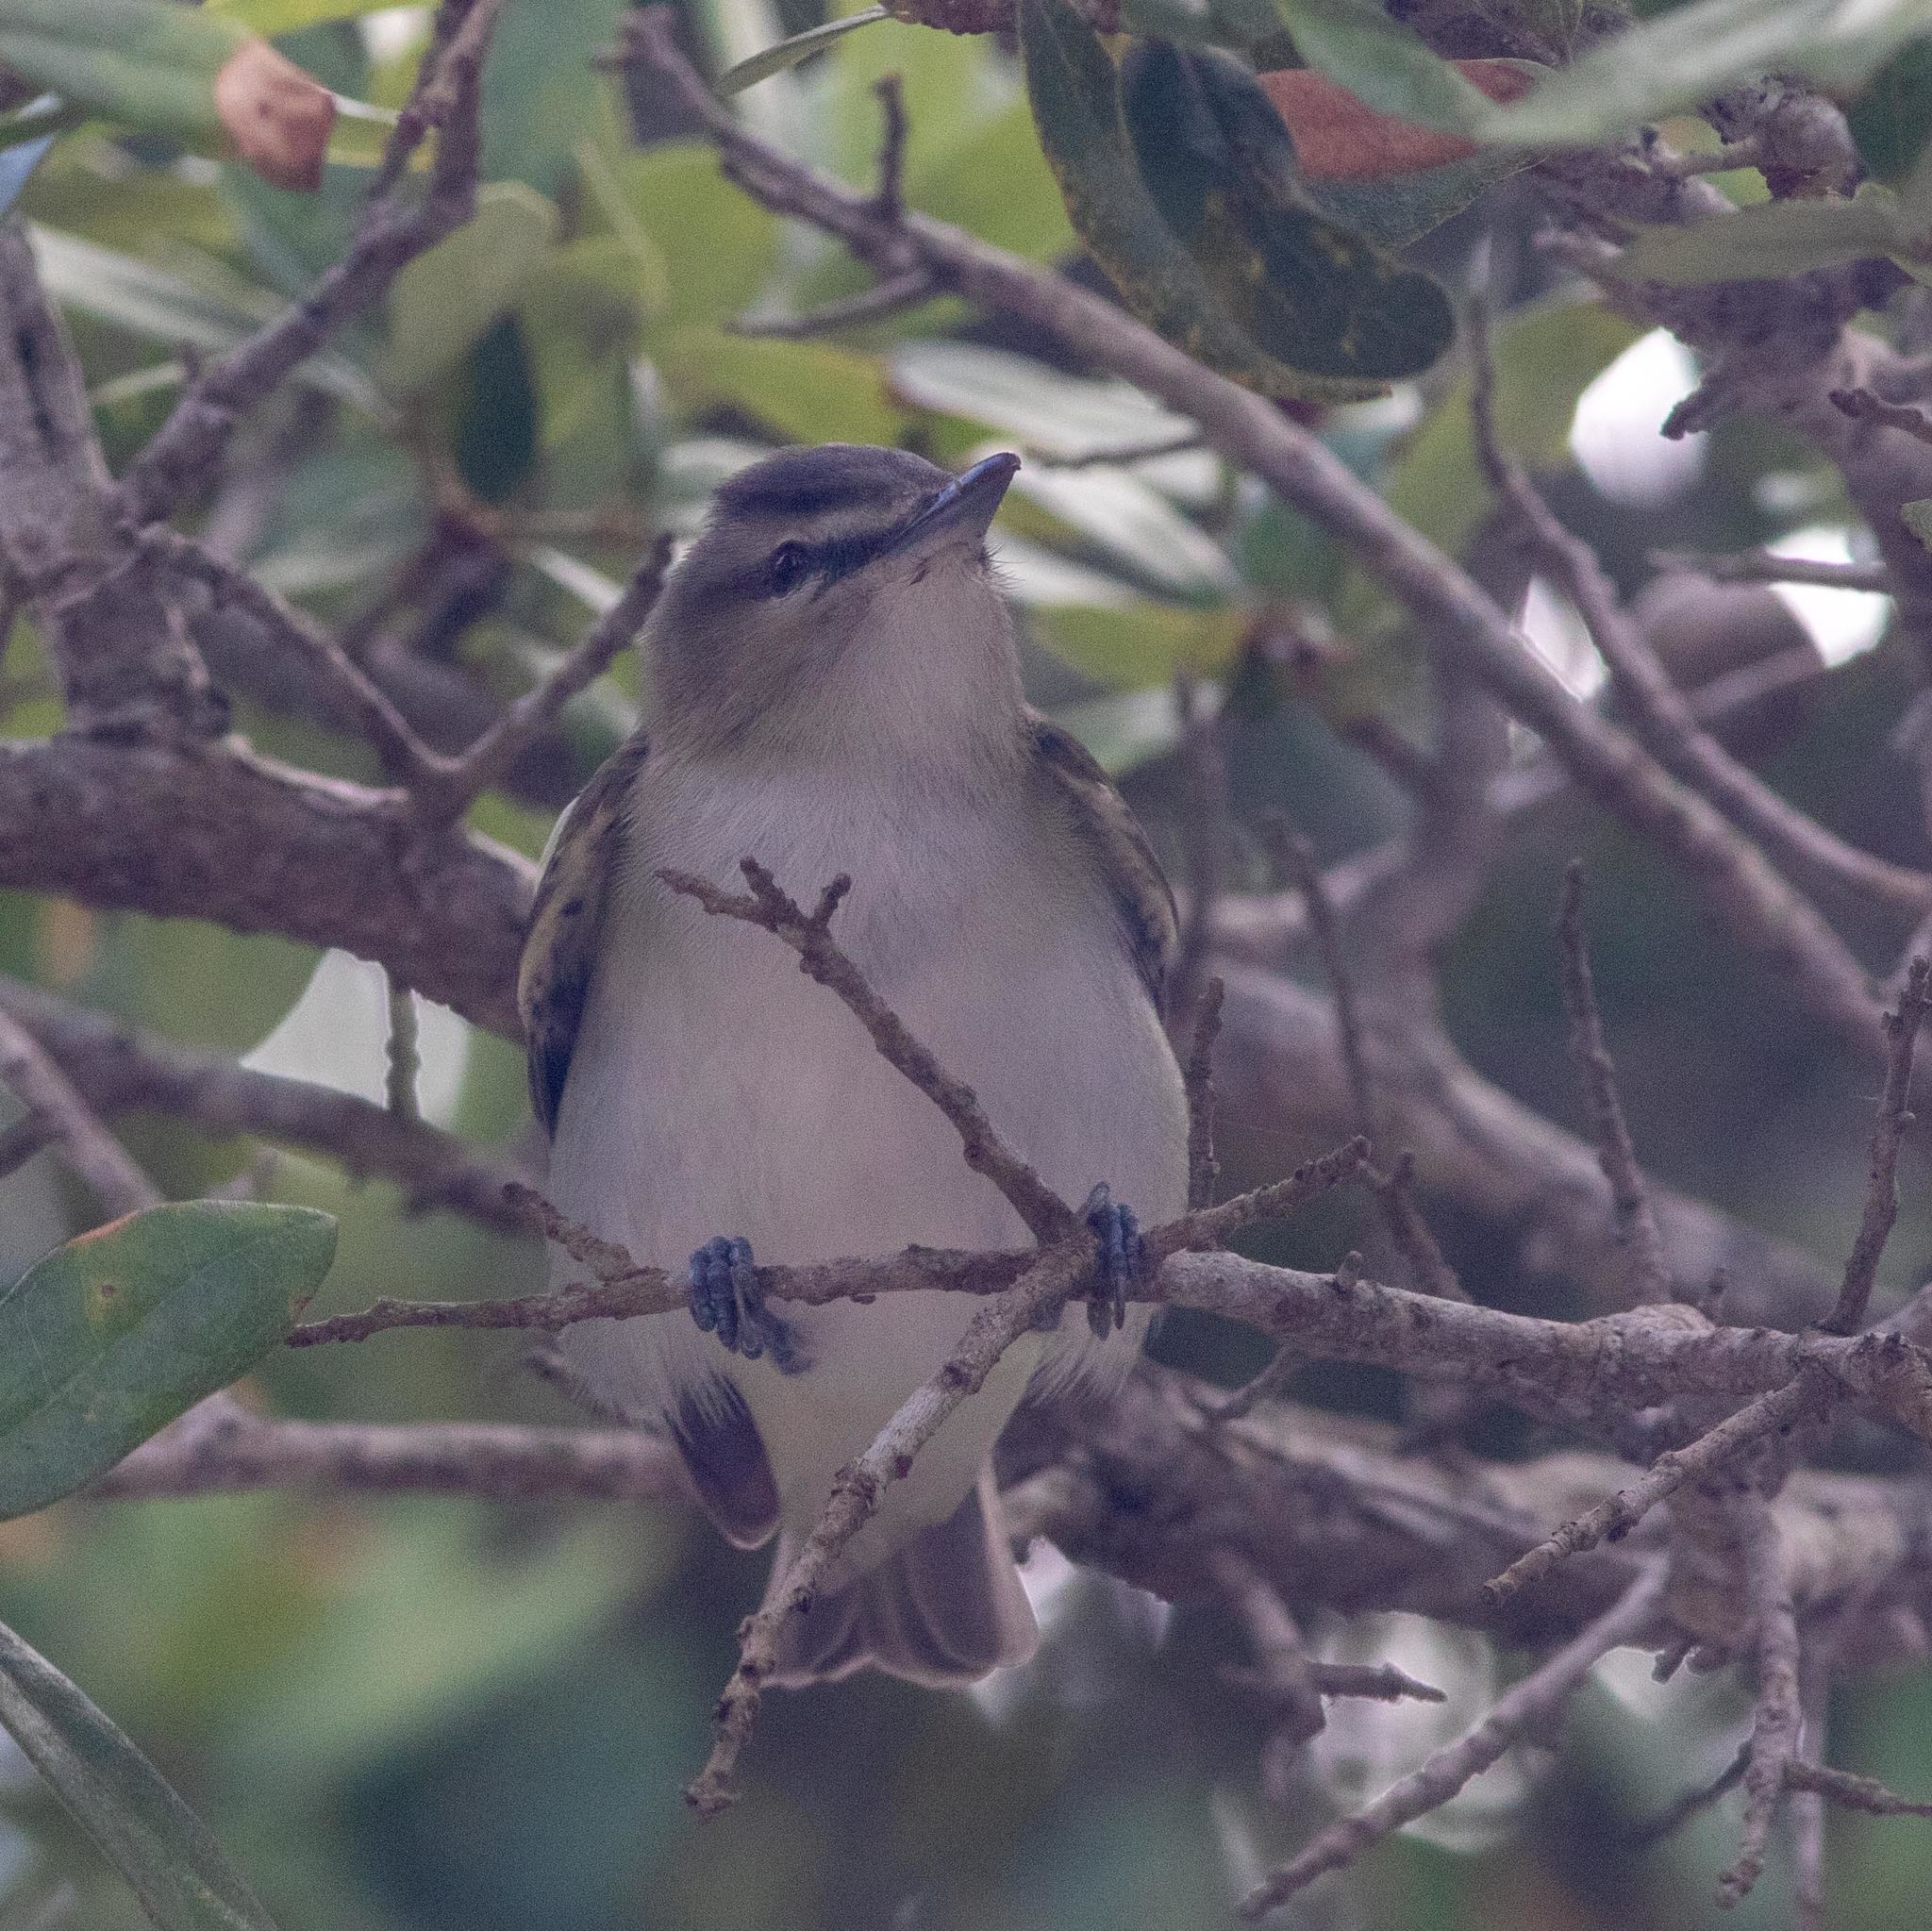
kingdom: Animalia
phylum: Chordata
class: Aves
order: Passeriformes
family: Vireonidae
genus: Vireo
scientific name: Vireo olivaceus
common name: Red-eyed vireo
